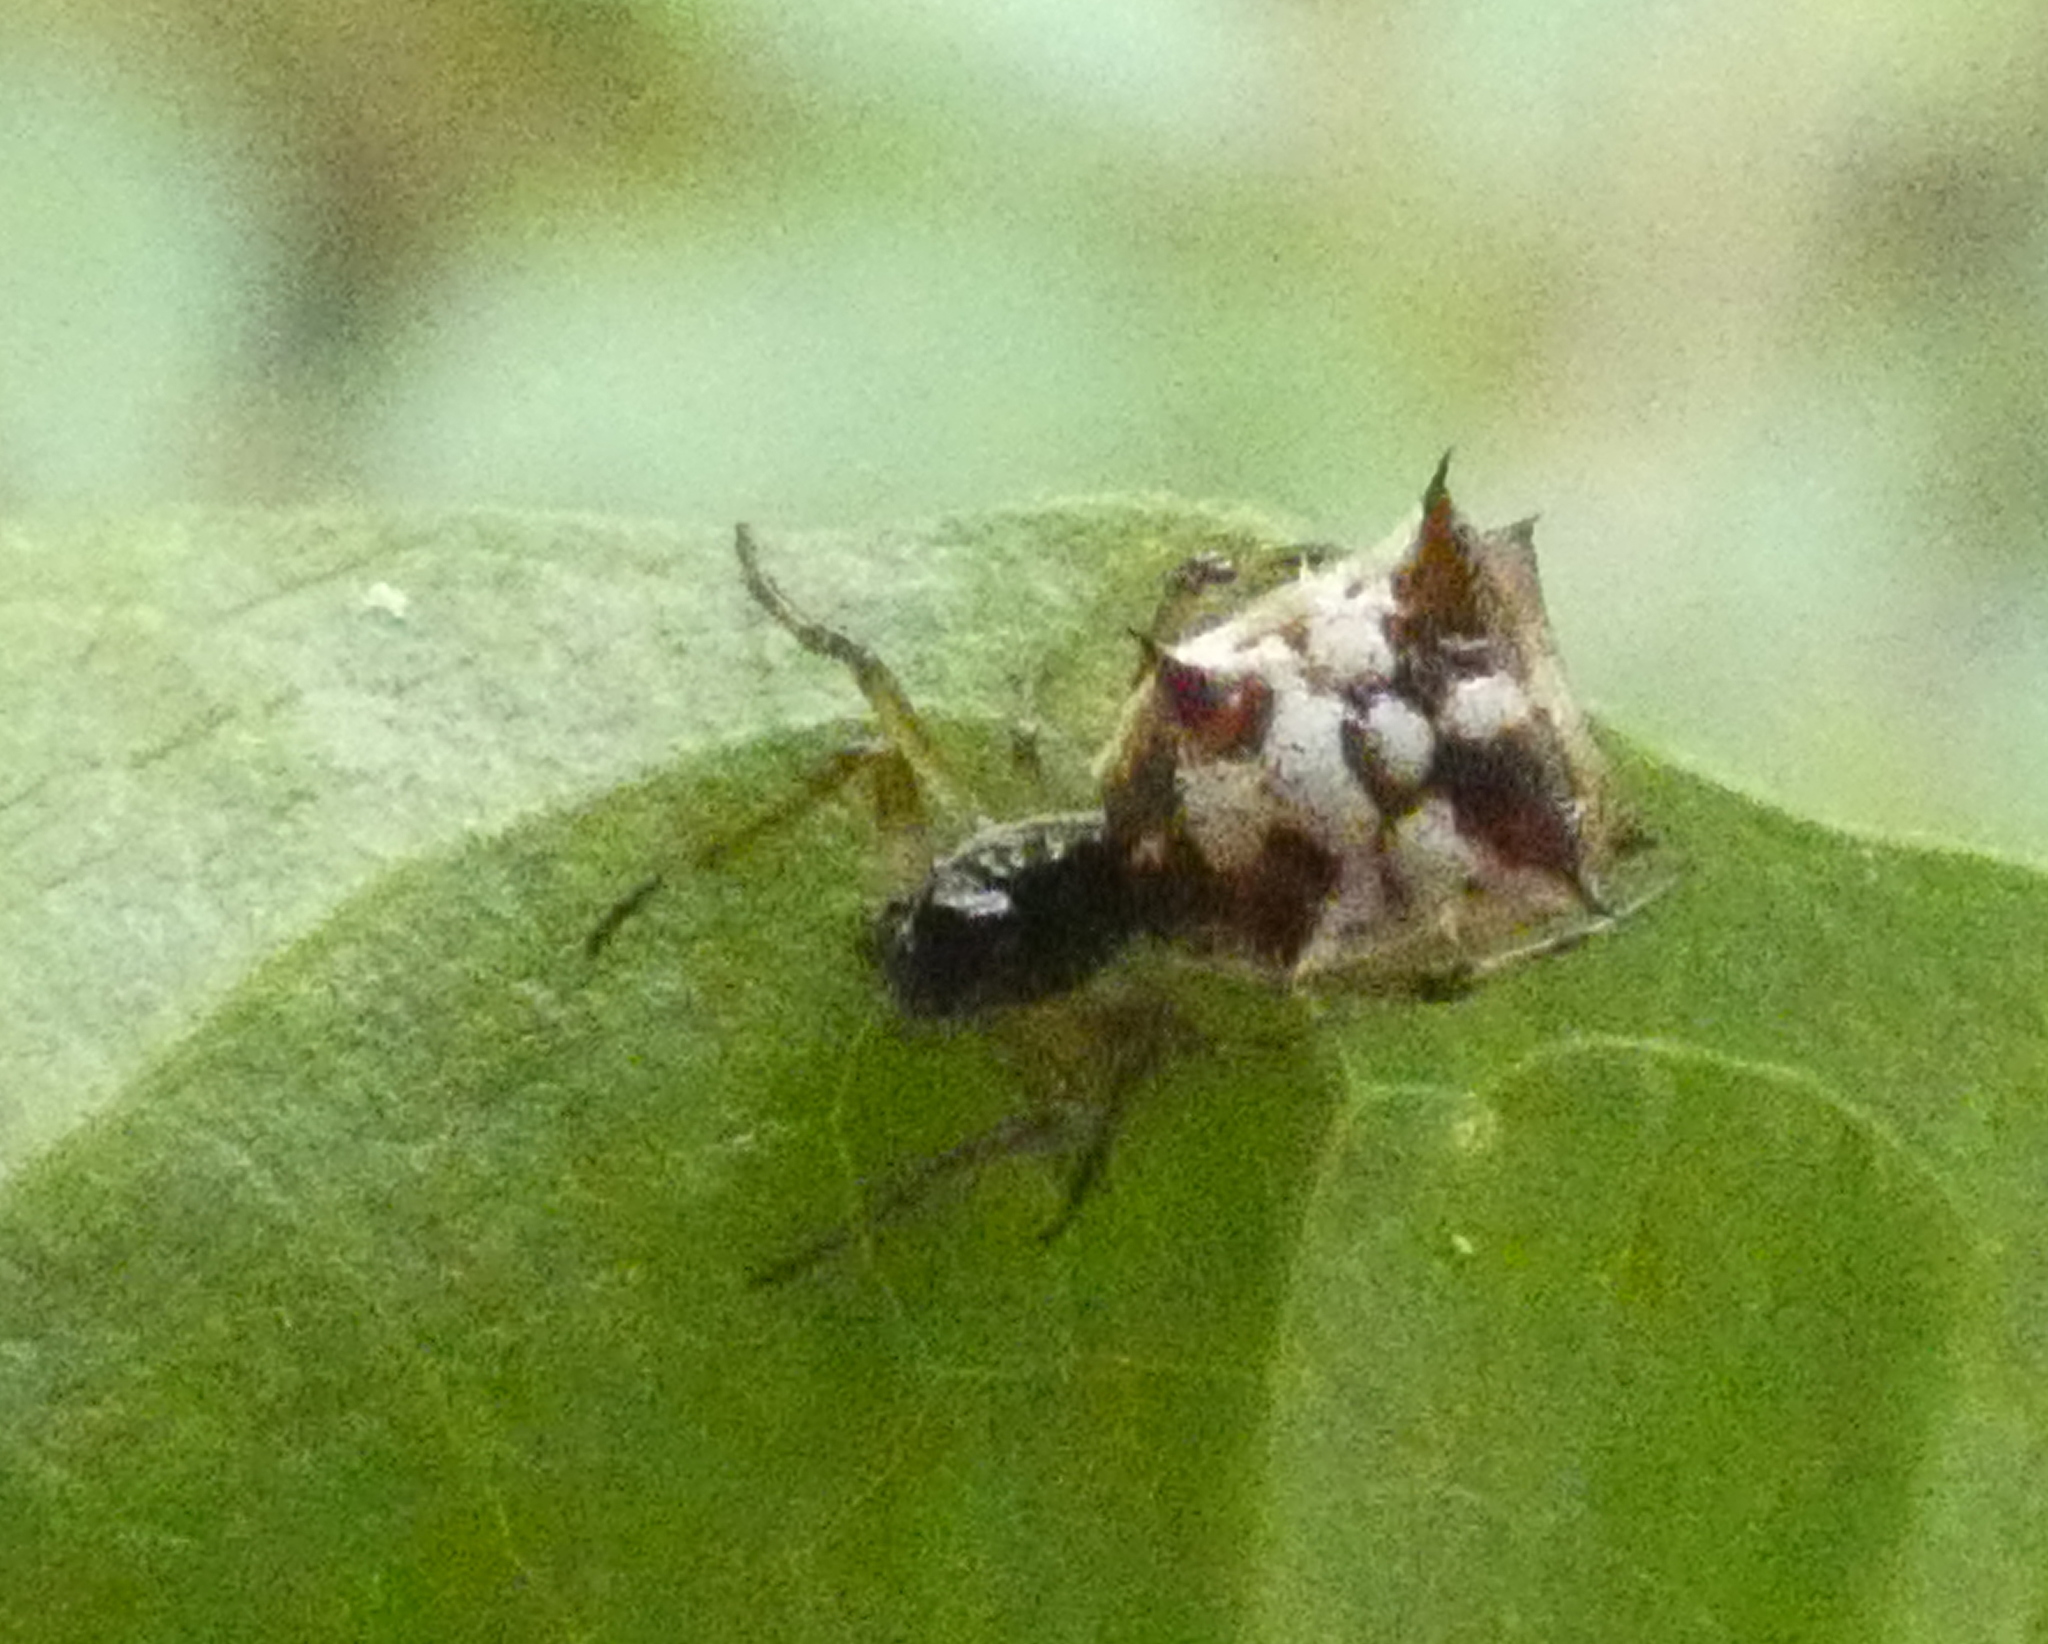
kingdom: Animalia
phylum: Arthropoda
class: Arachnida
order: Araneae
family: Araneidae
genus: Micrathena
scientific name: Micrathena picta
